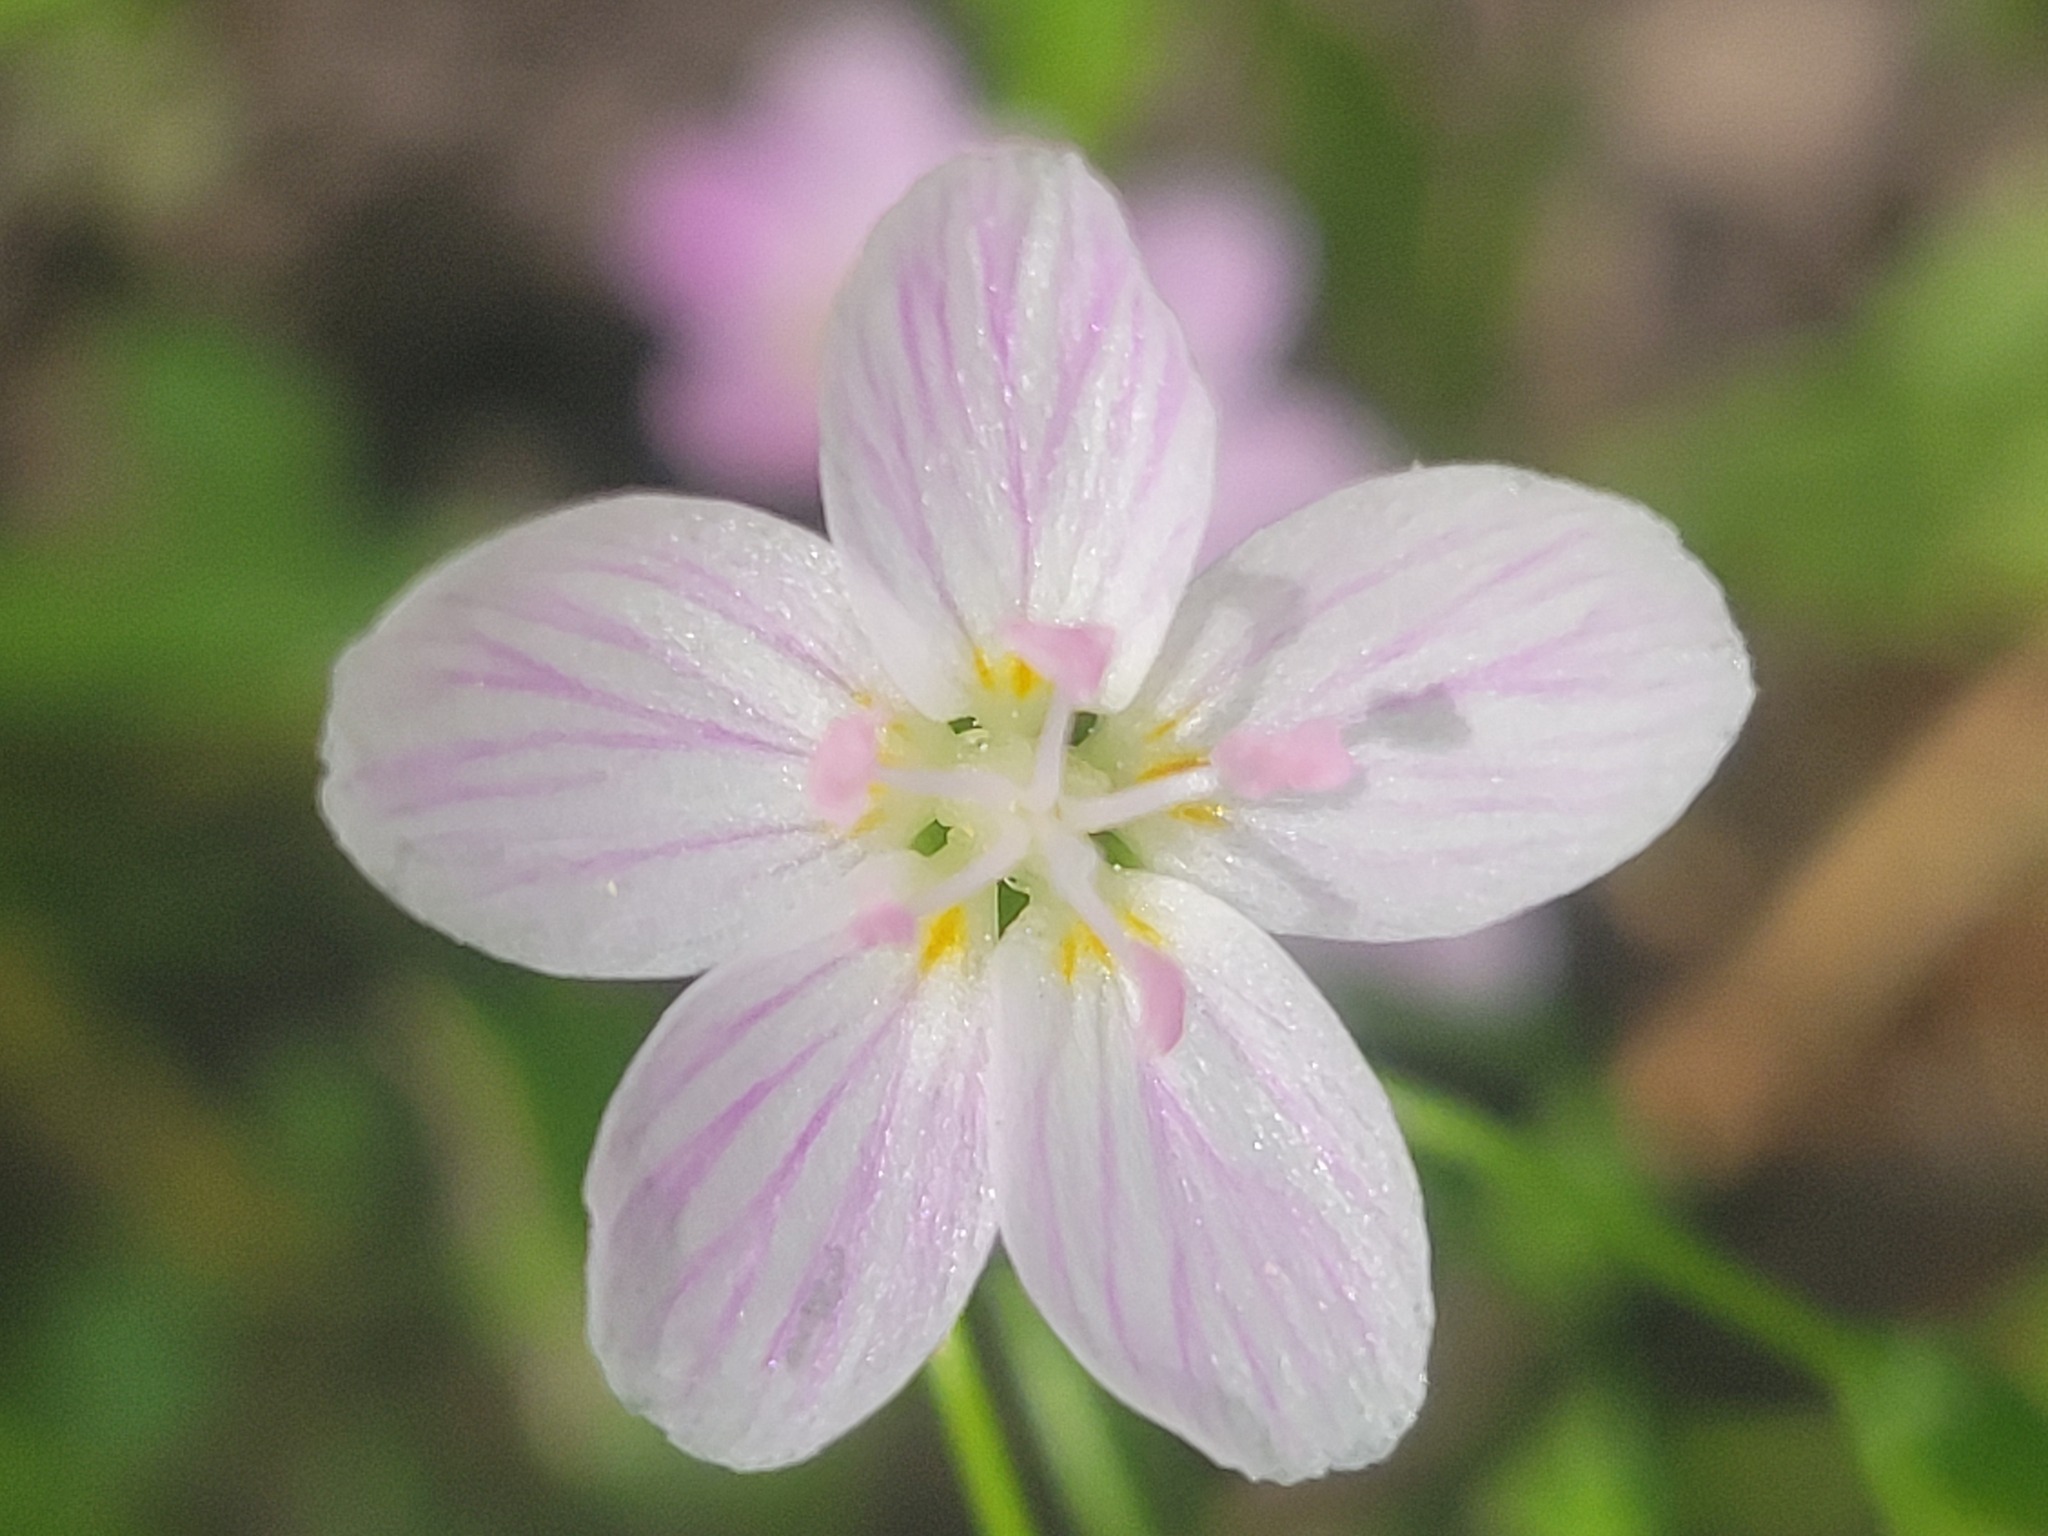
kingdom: Plantae
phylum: Tracheophyta
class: Magnoliopsida
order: Caryophyllales
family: Montiaceae
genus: Claytonia
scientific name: Claytonia virginica
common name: Virginia springbeauty
